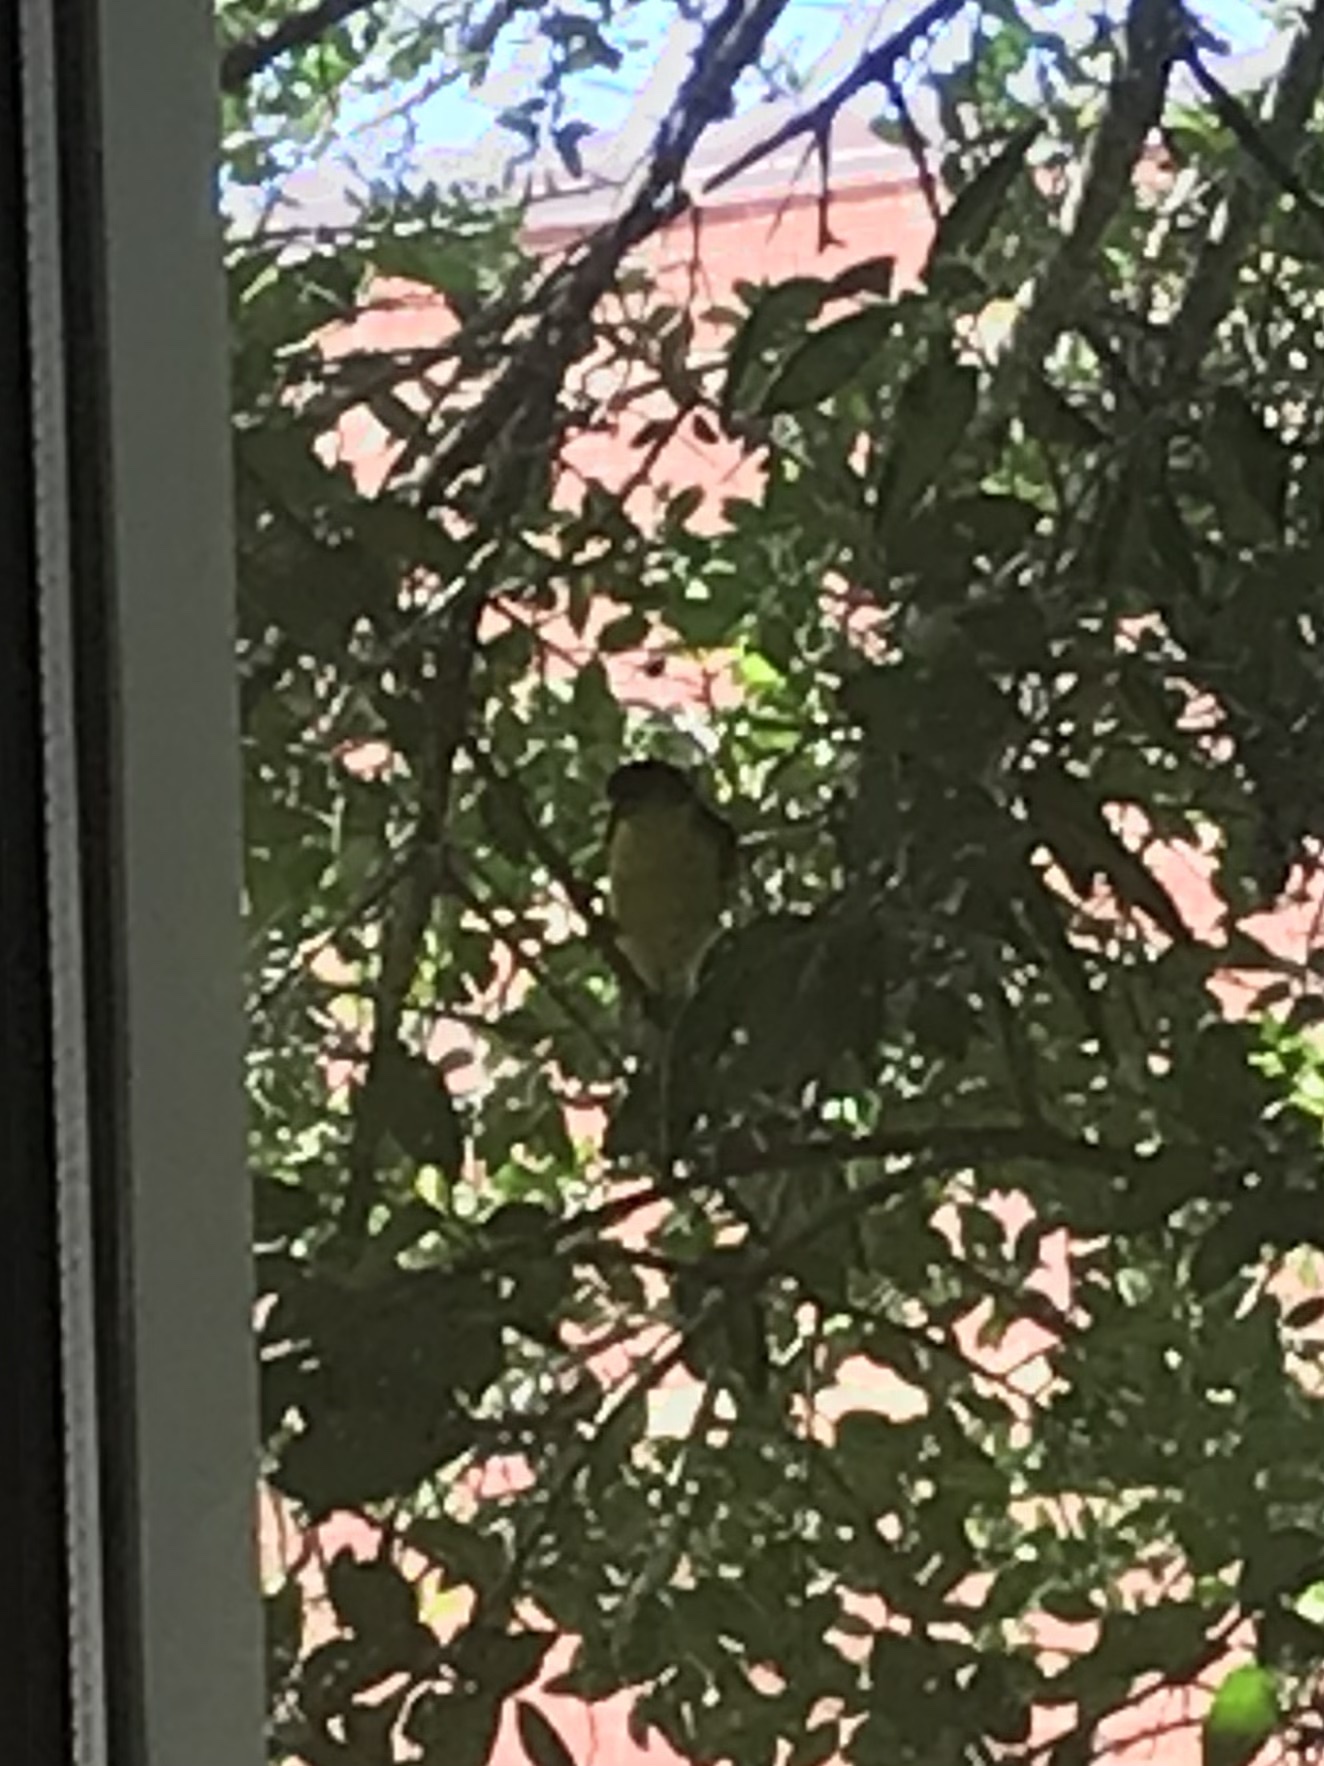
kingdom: Animalia
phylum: Chordata
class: Aves
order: Passeriformes
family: Fringillidae
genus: Spinus
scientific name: Spinus psaltria
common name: Lesser goldfinch
